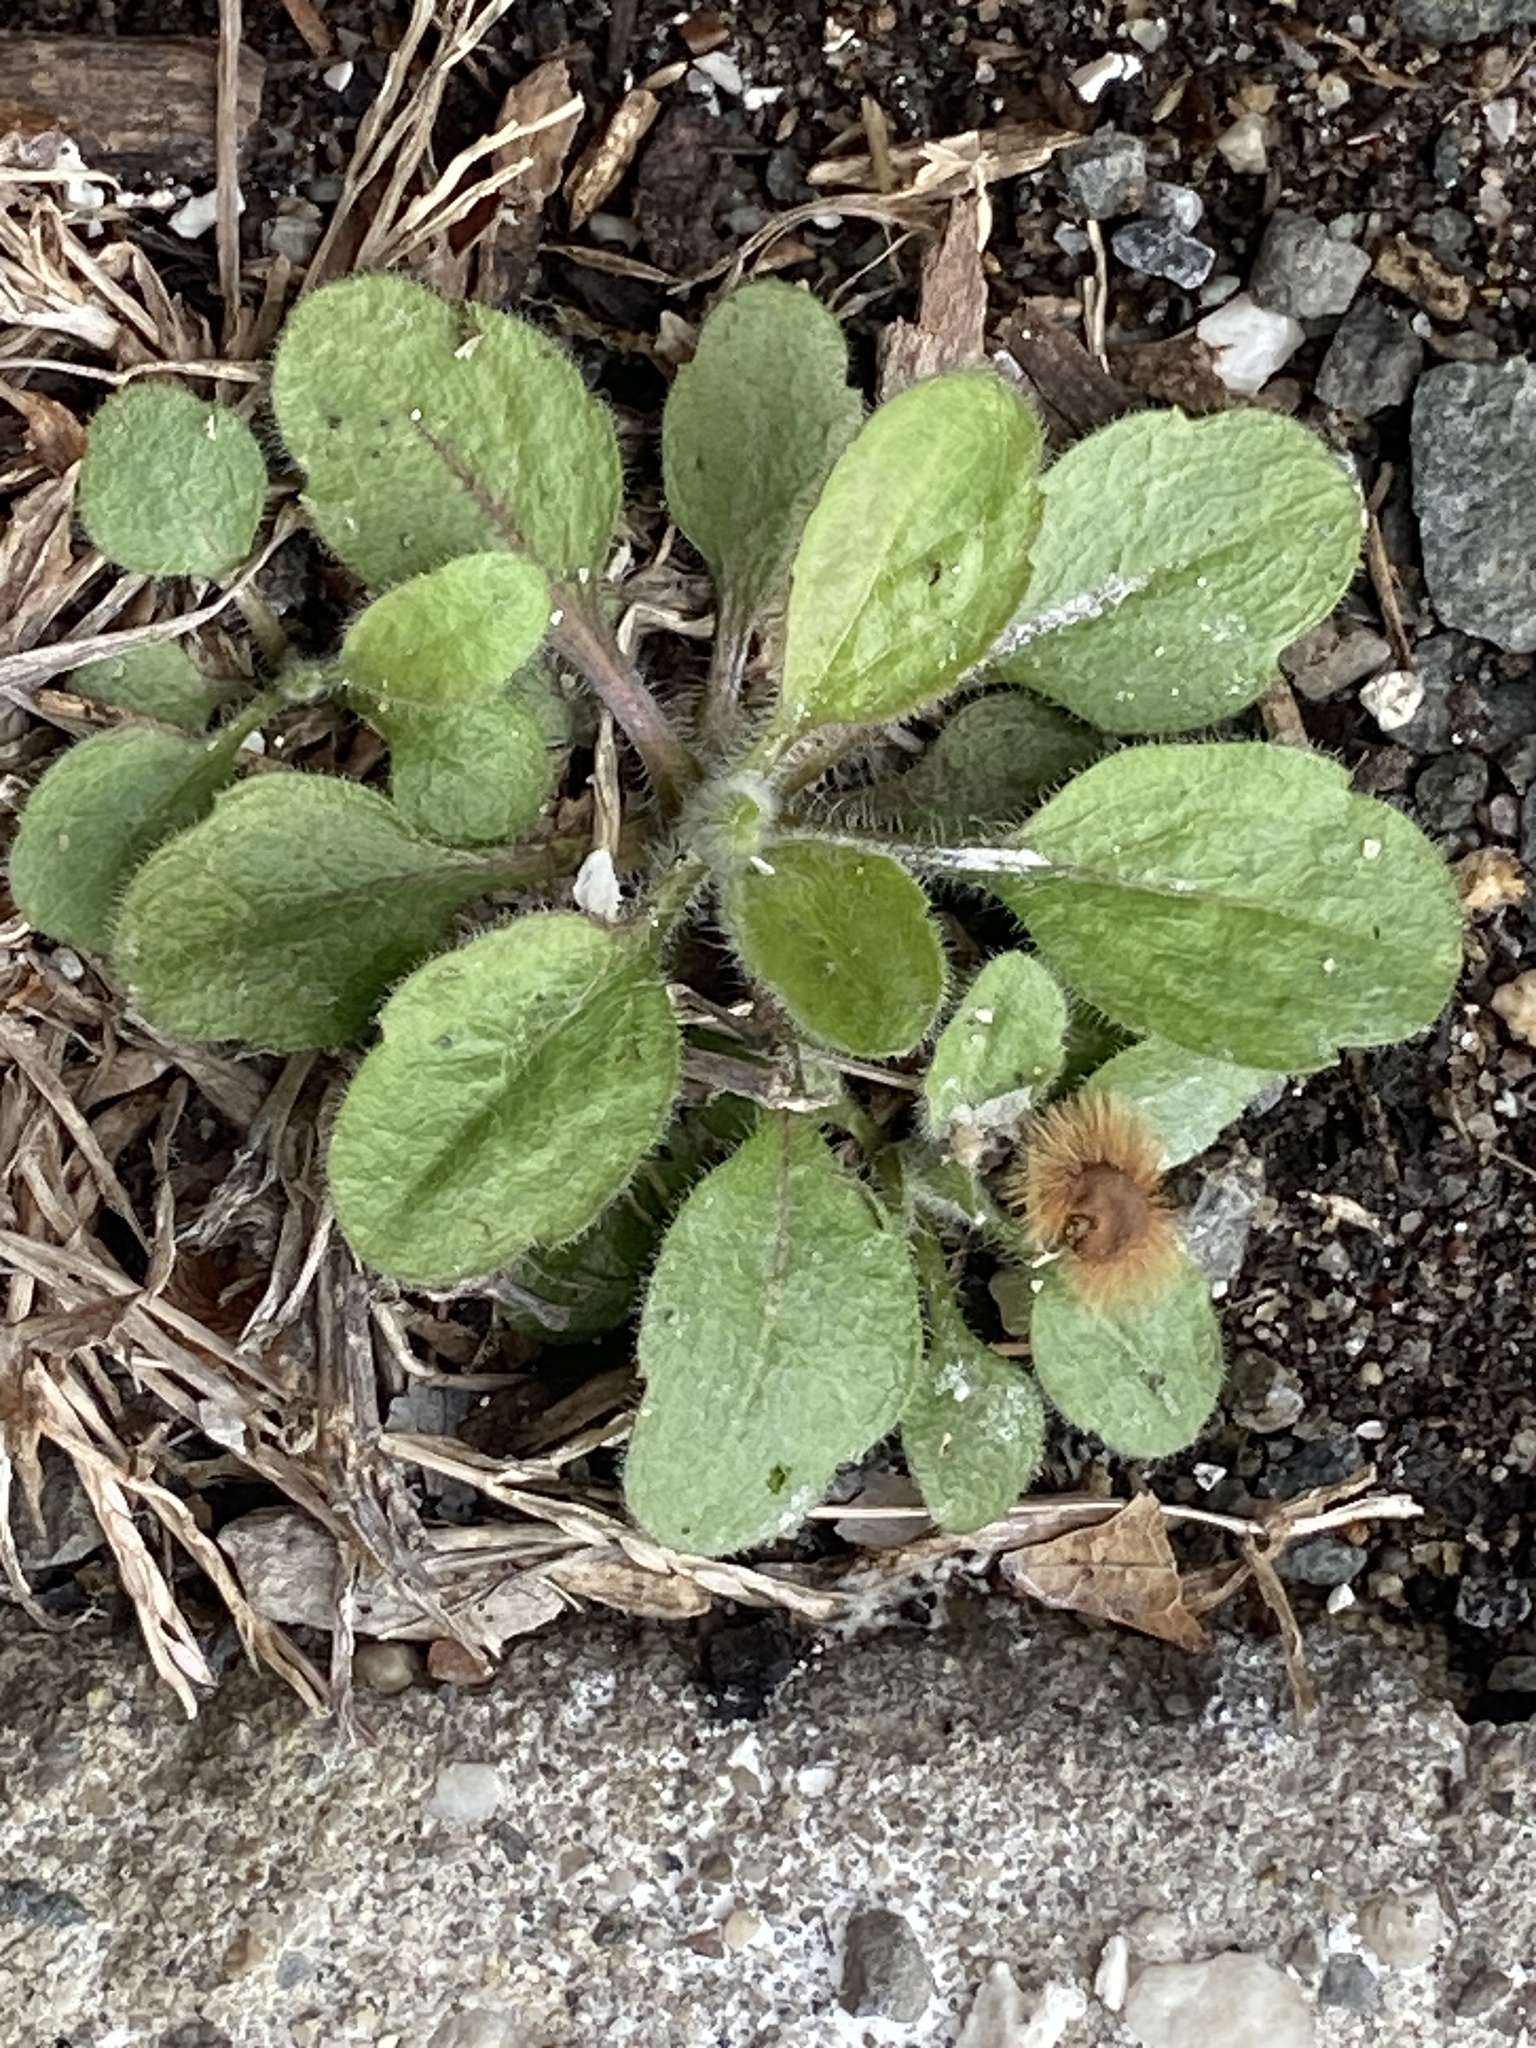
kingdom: Plantae
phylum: Tracheophyta
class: Magnoliopsida
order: Asterales
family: Asteraceae
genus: Erigeron
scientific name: Erigeron canadensis
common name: Canadian fleabane
